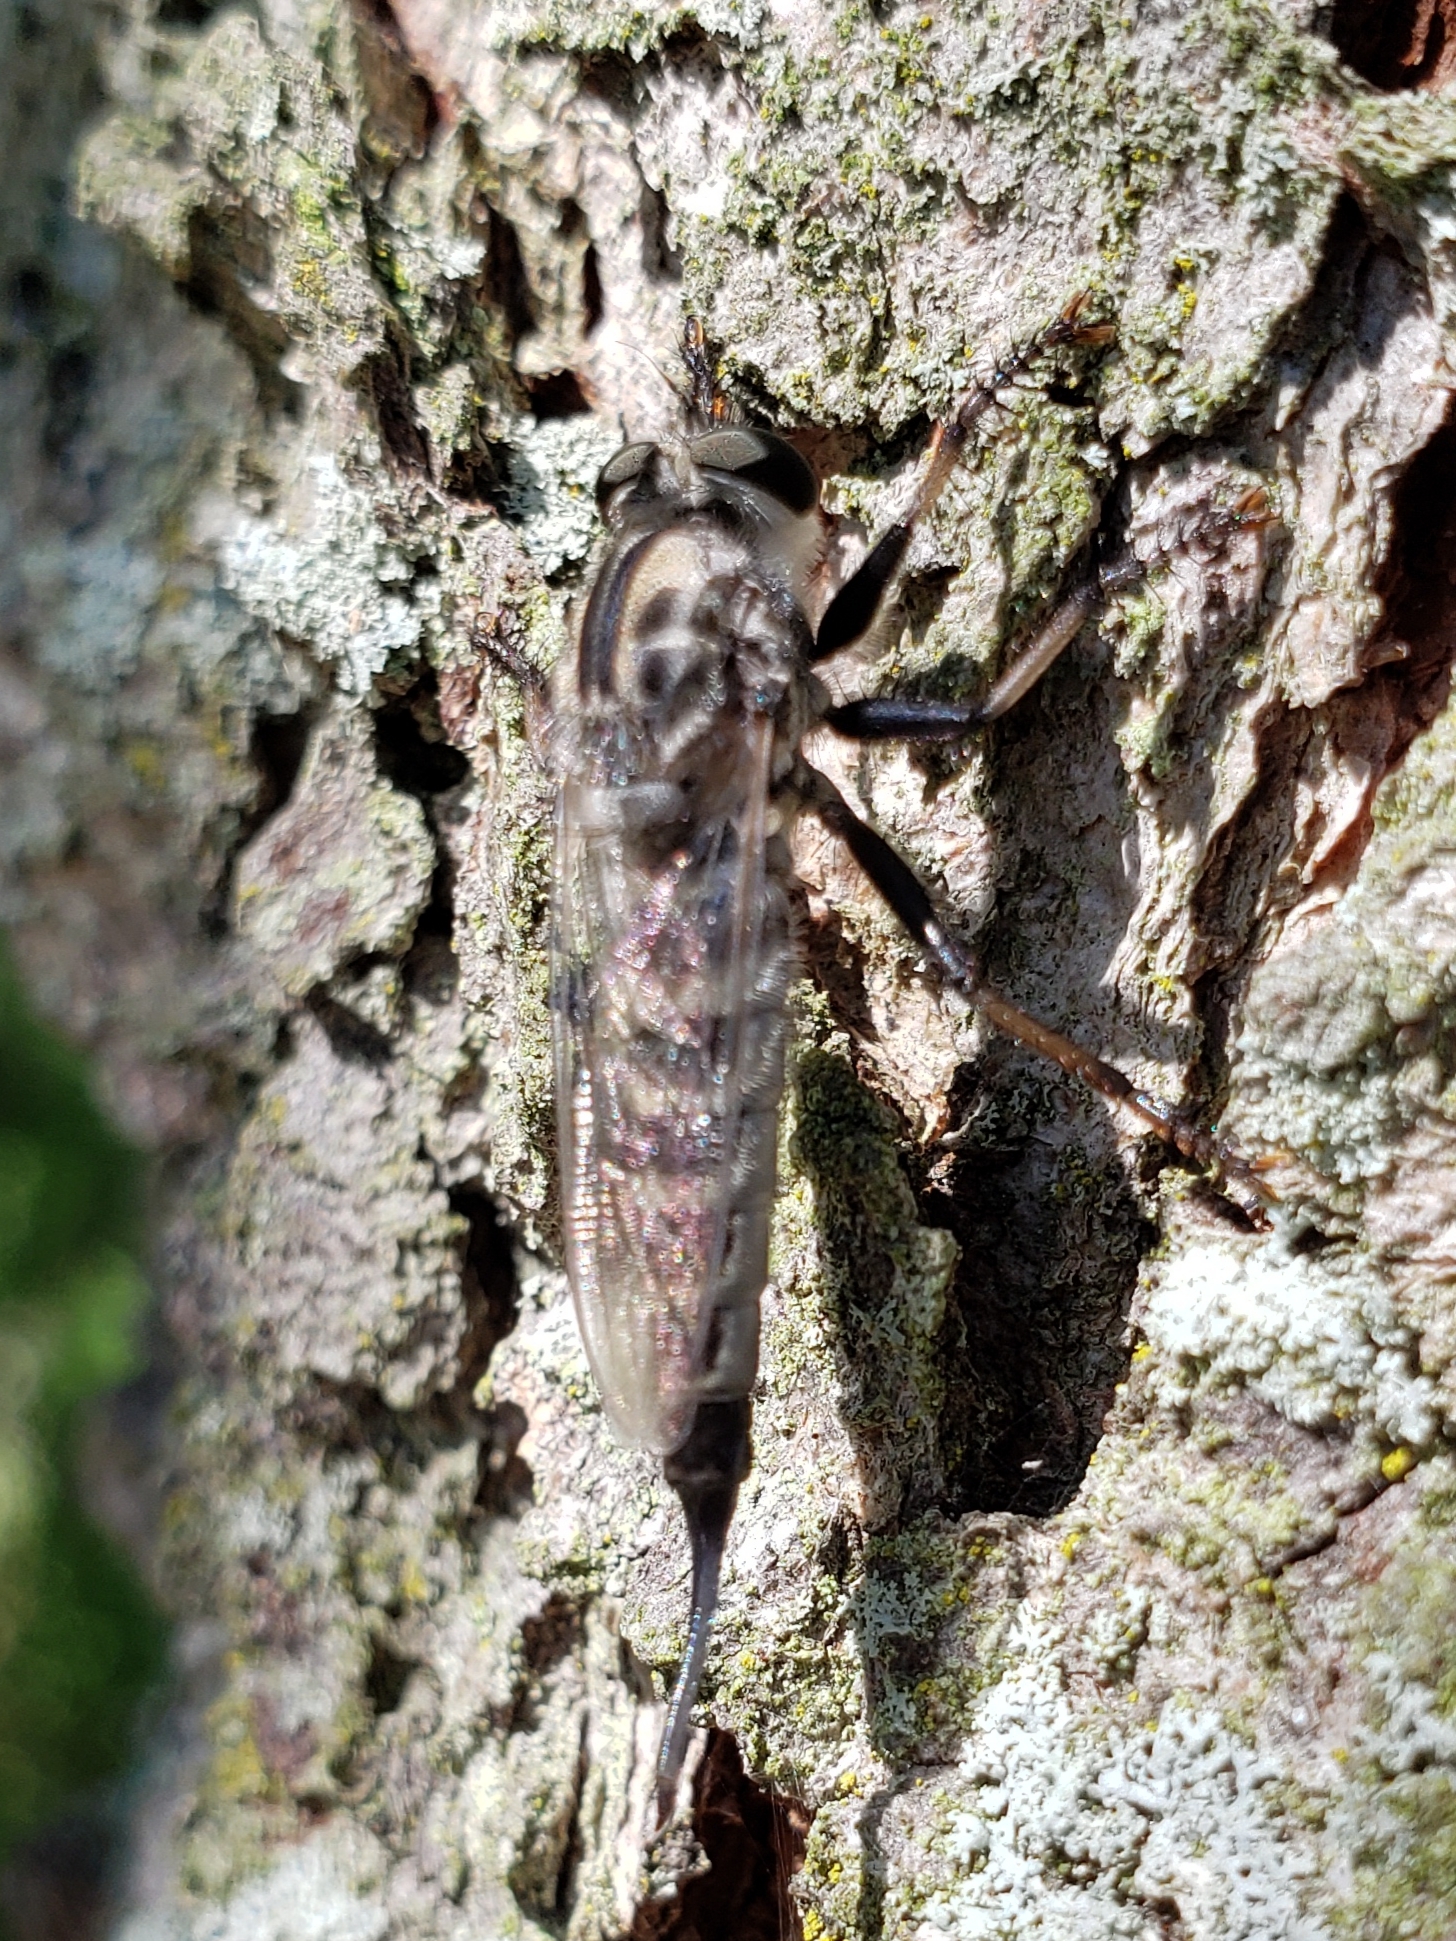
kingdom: Animalia
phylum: Arthropoda
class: Insecta
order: Diptera
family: Asilidae
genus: Efferia
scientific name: Efferia aestuans
